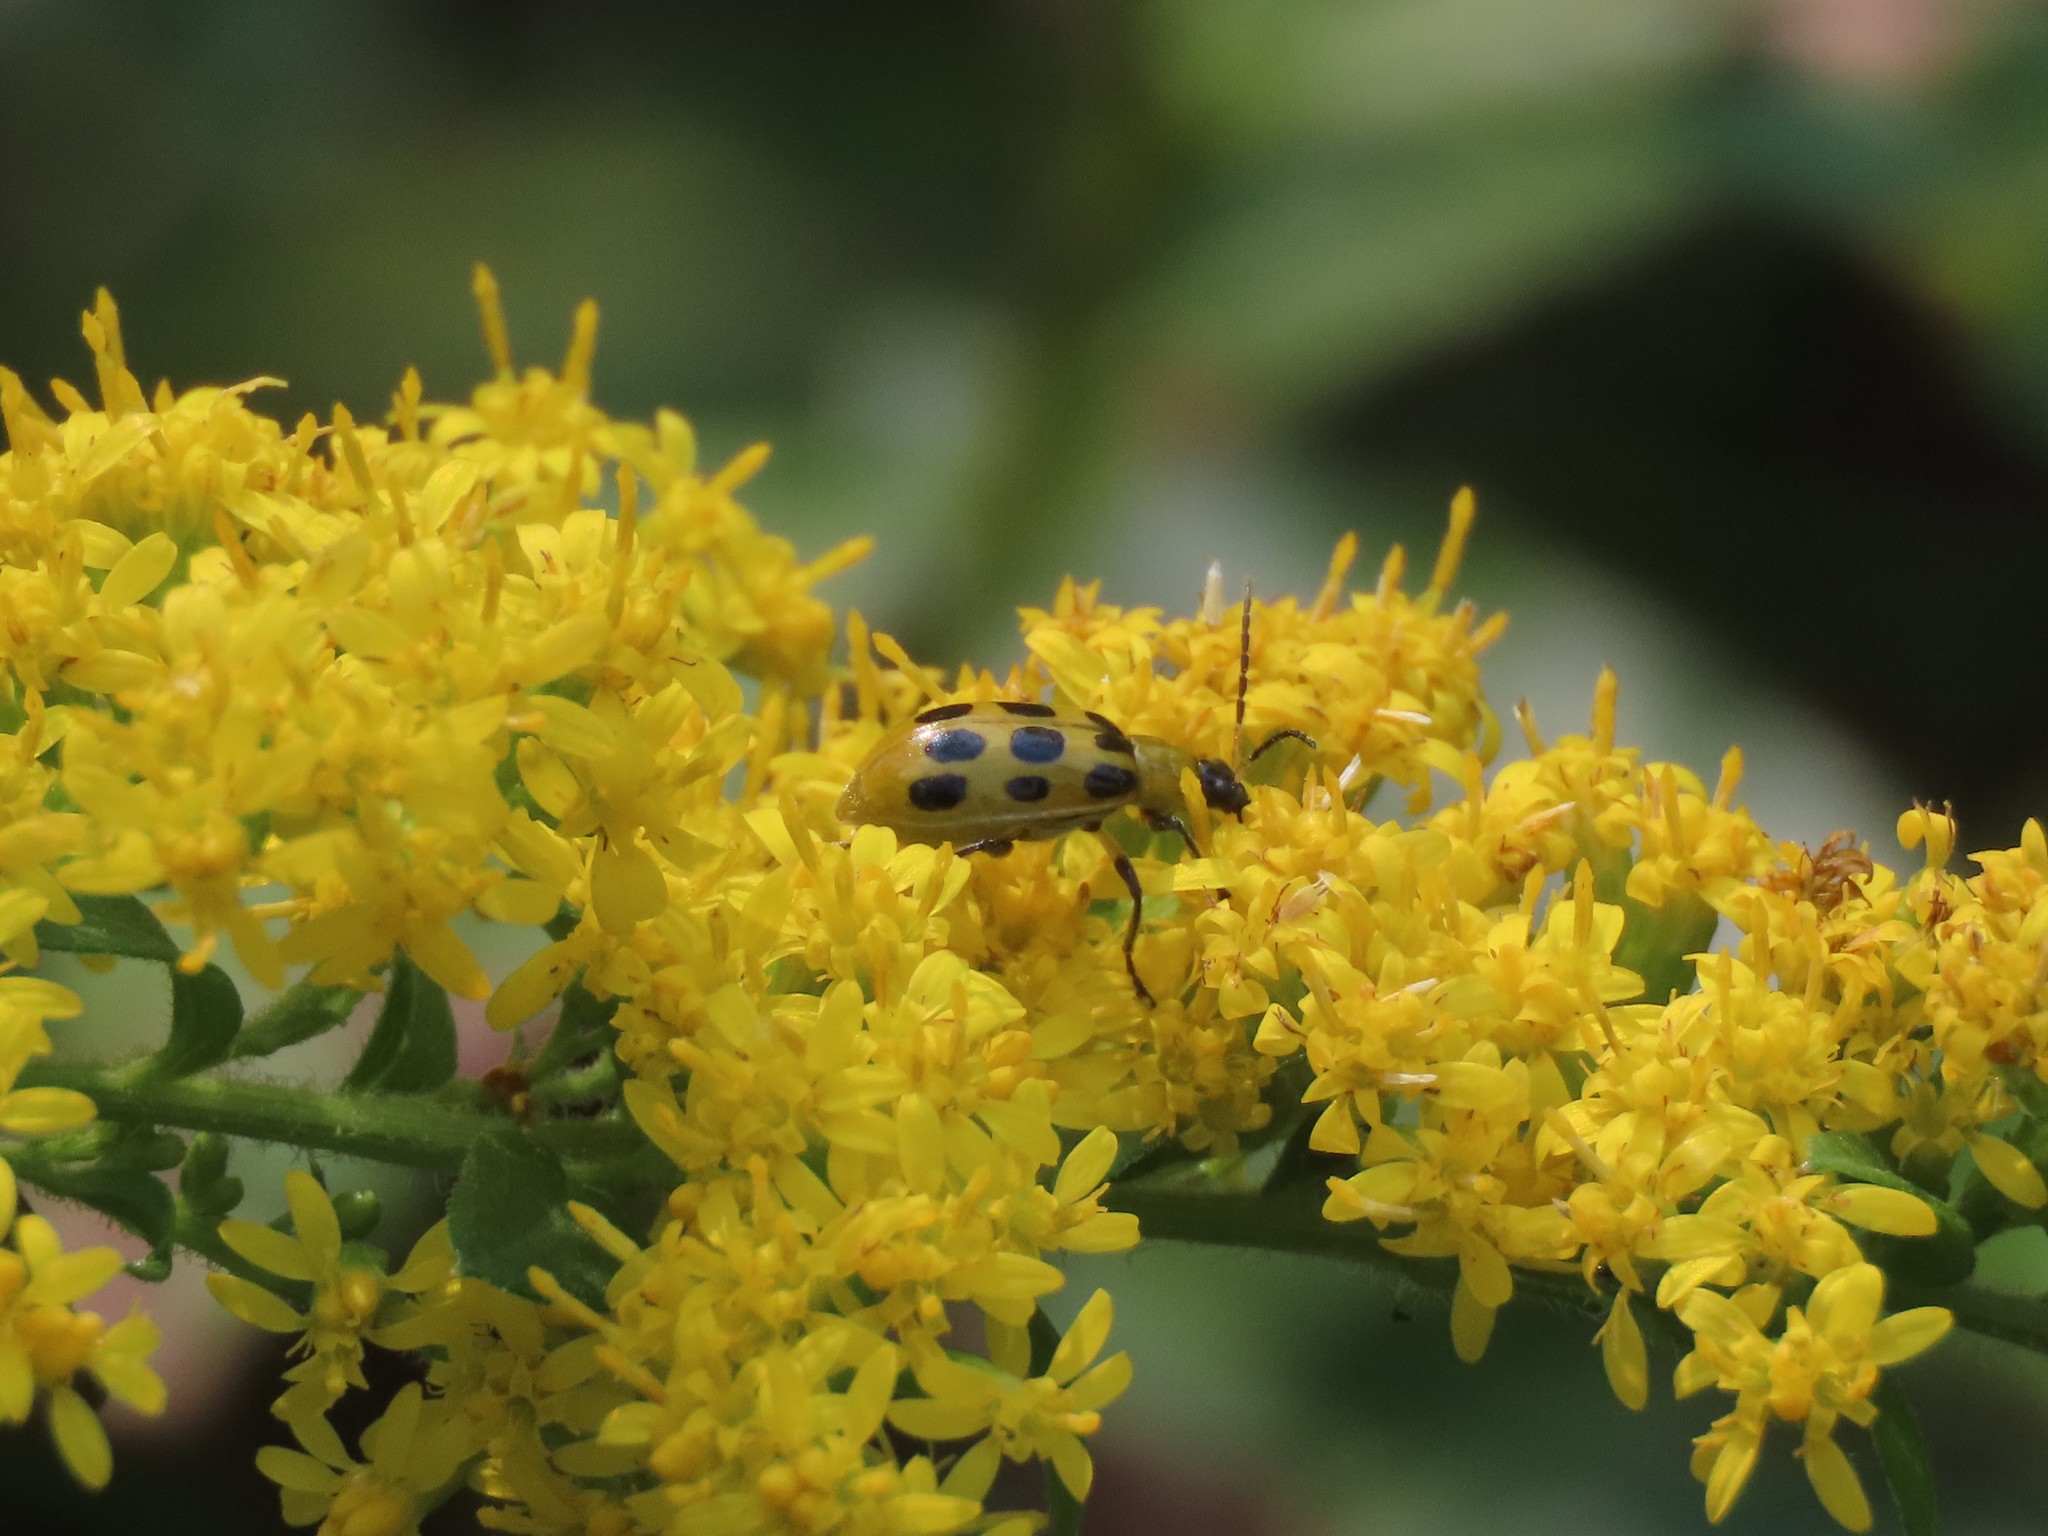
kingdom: Animalia
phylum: Arthropoda
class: Insecta
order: Coleoptera
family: Chrysomelidae
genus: Diabrotica
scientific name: Diabrotica undecimpunctata
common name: Spotted cucumber beetle
